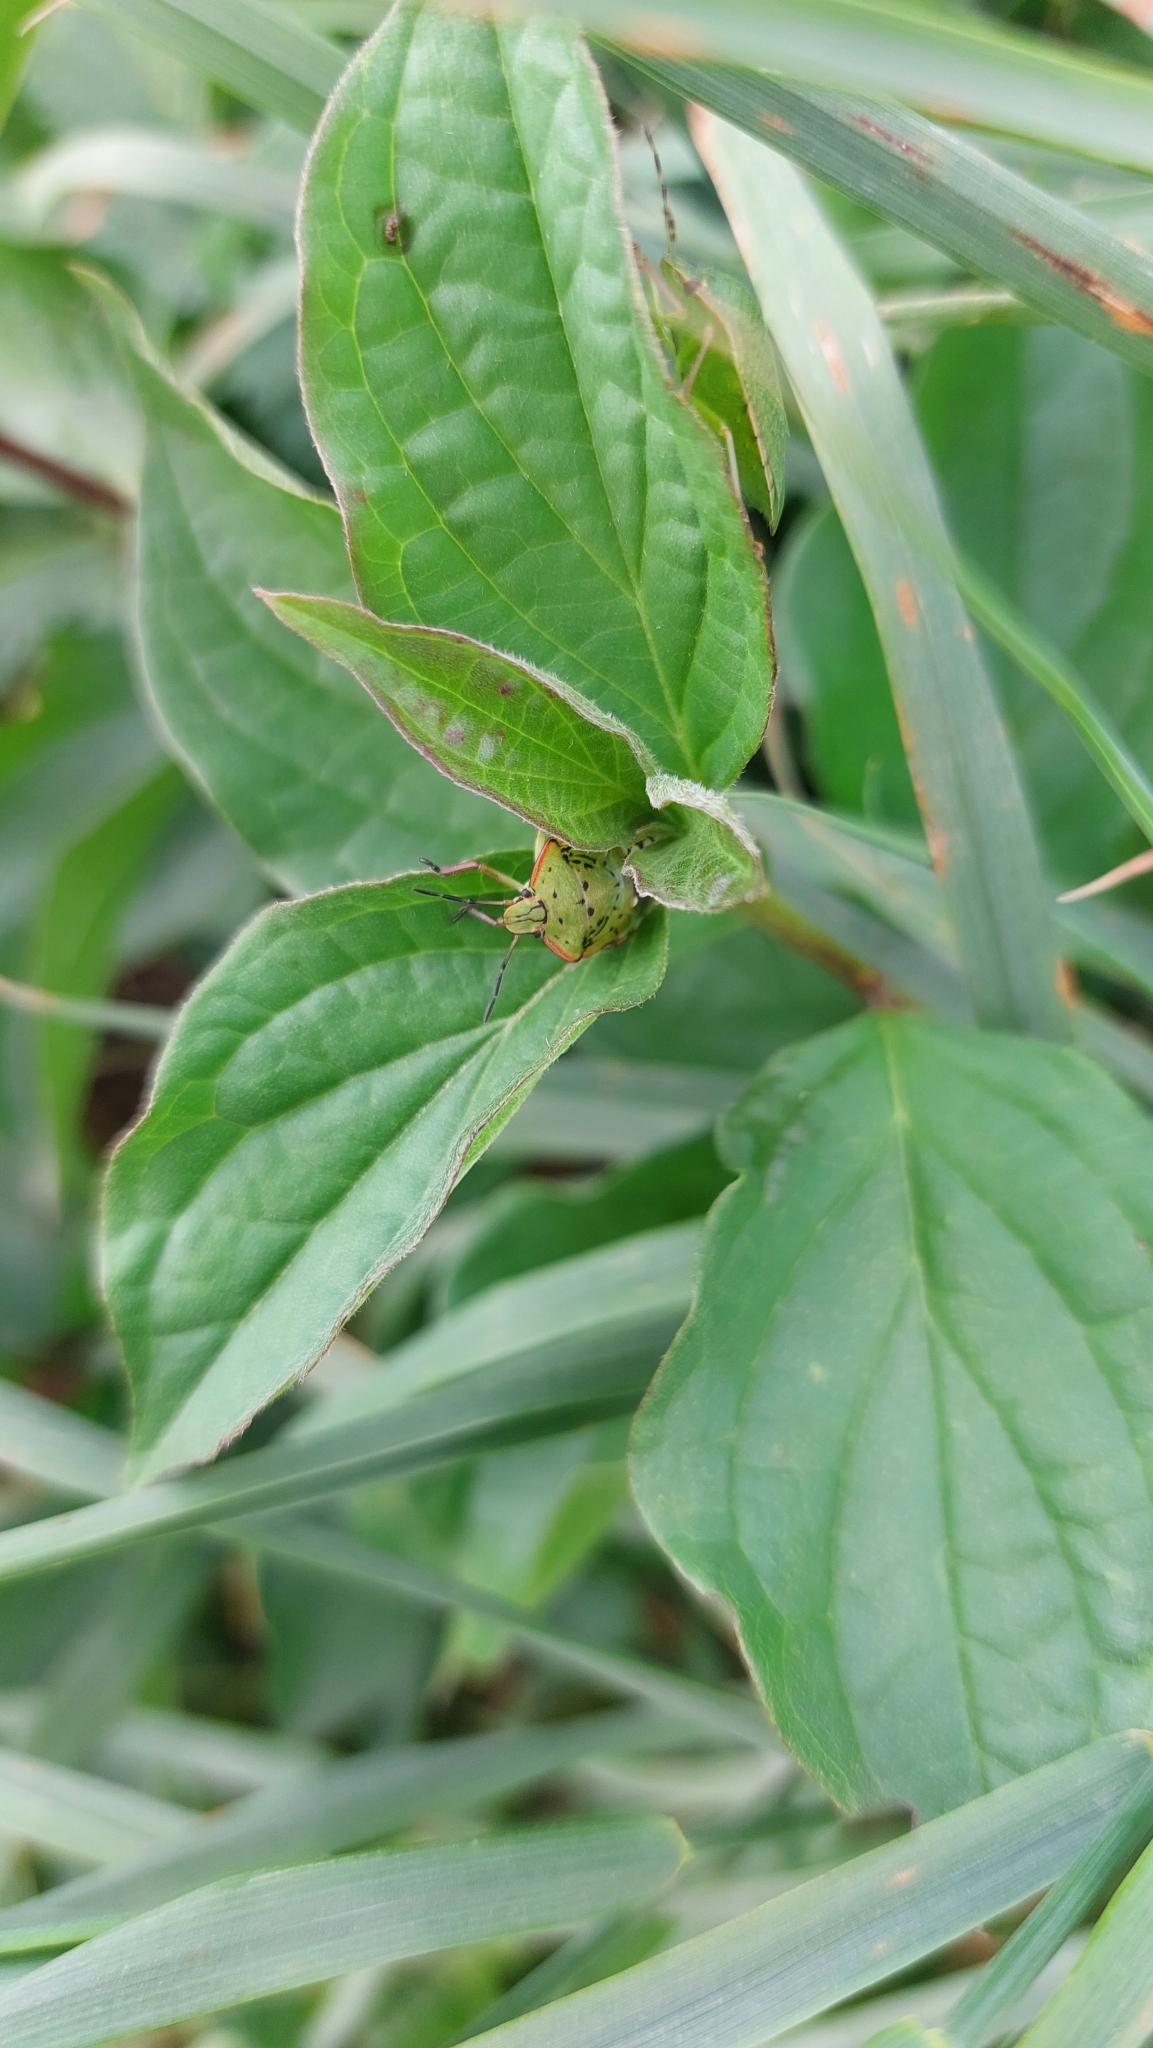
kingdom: Animalia
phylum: Arthropoda
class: Insecta
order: Hemiptera
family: Pentatomidae
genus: Nezara
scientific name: Nezara viridula
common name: Southern green stink bug
